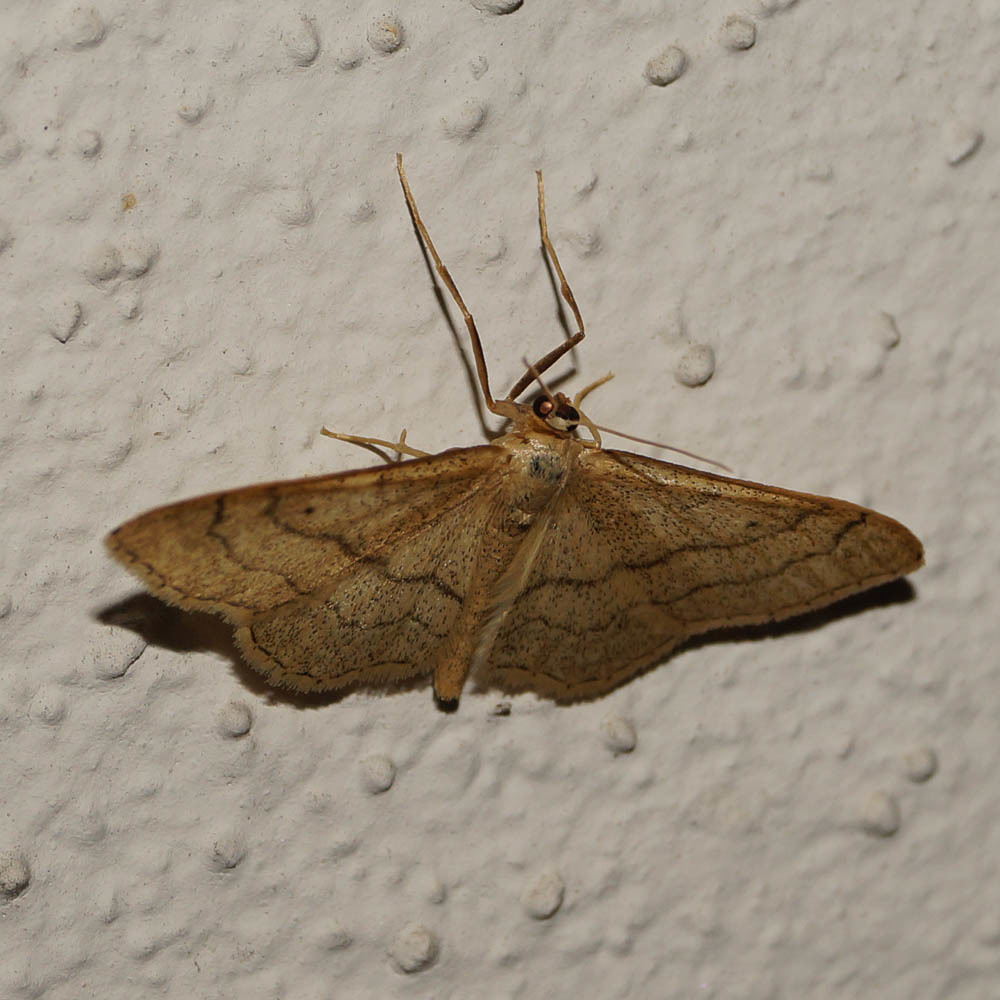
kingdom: Animalia
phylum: Arthropoda
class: Insecta
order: Lepidoptera
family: Geometridae
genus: Idaea
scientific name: Idaea aversata
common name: Riband wave
